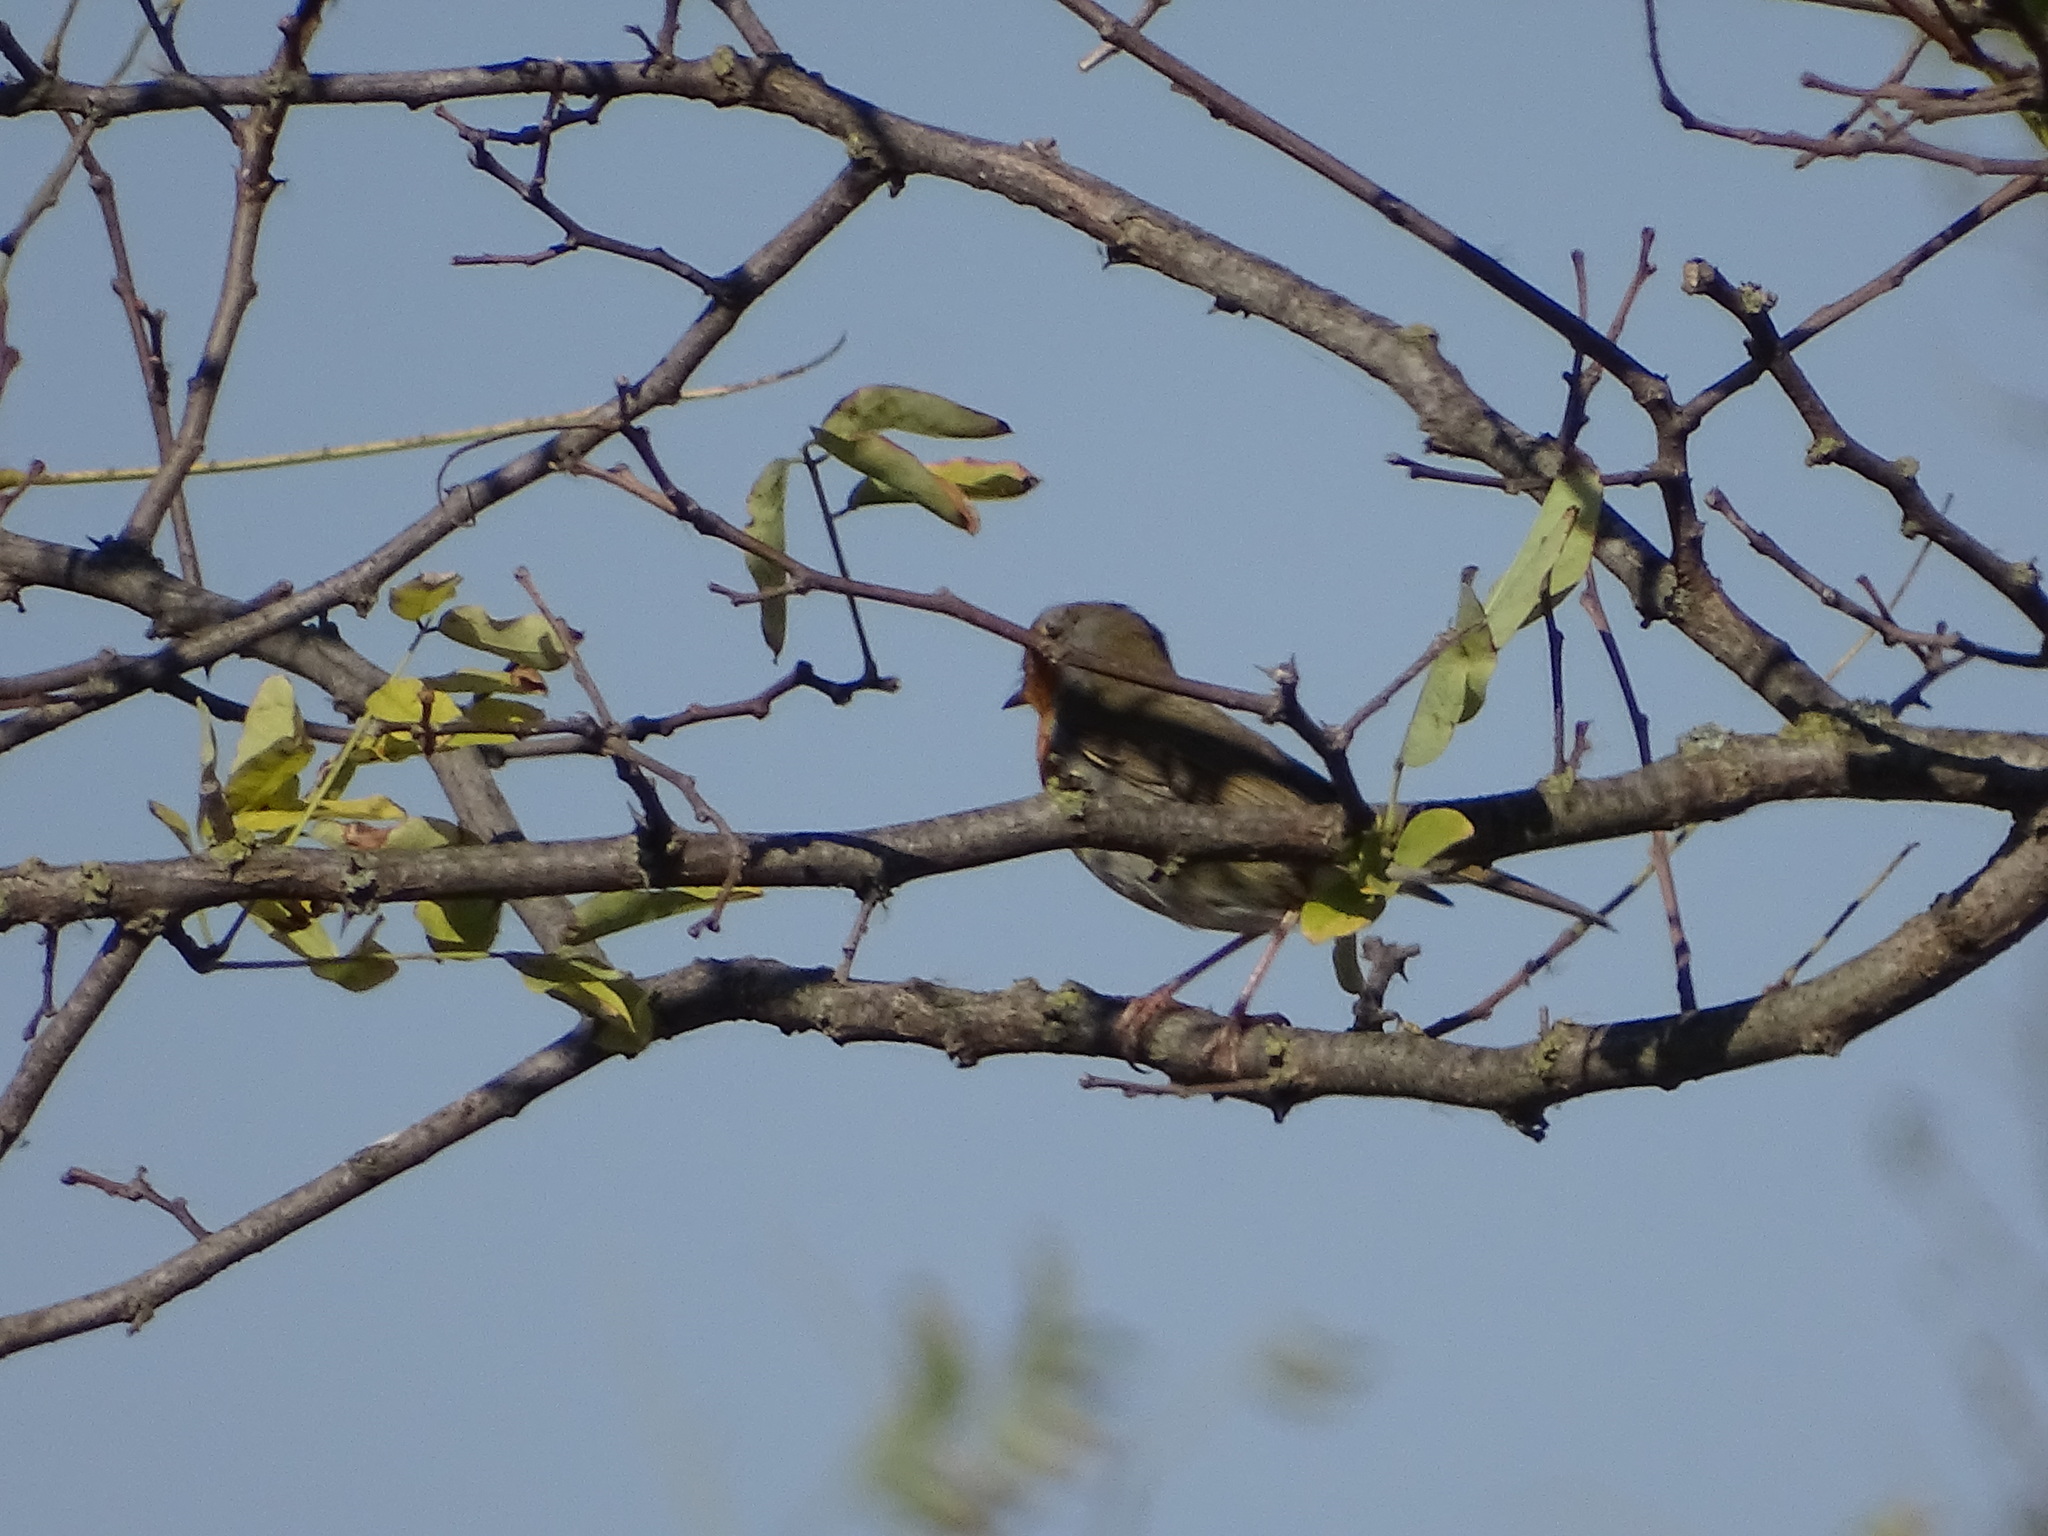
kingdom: Animalia
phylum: Chordata
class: Aves
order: Passeriformes
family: Muscicapidae
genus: Erithacus
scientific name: Erithacus rubecula
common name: European robin
